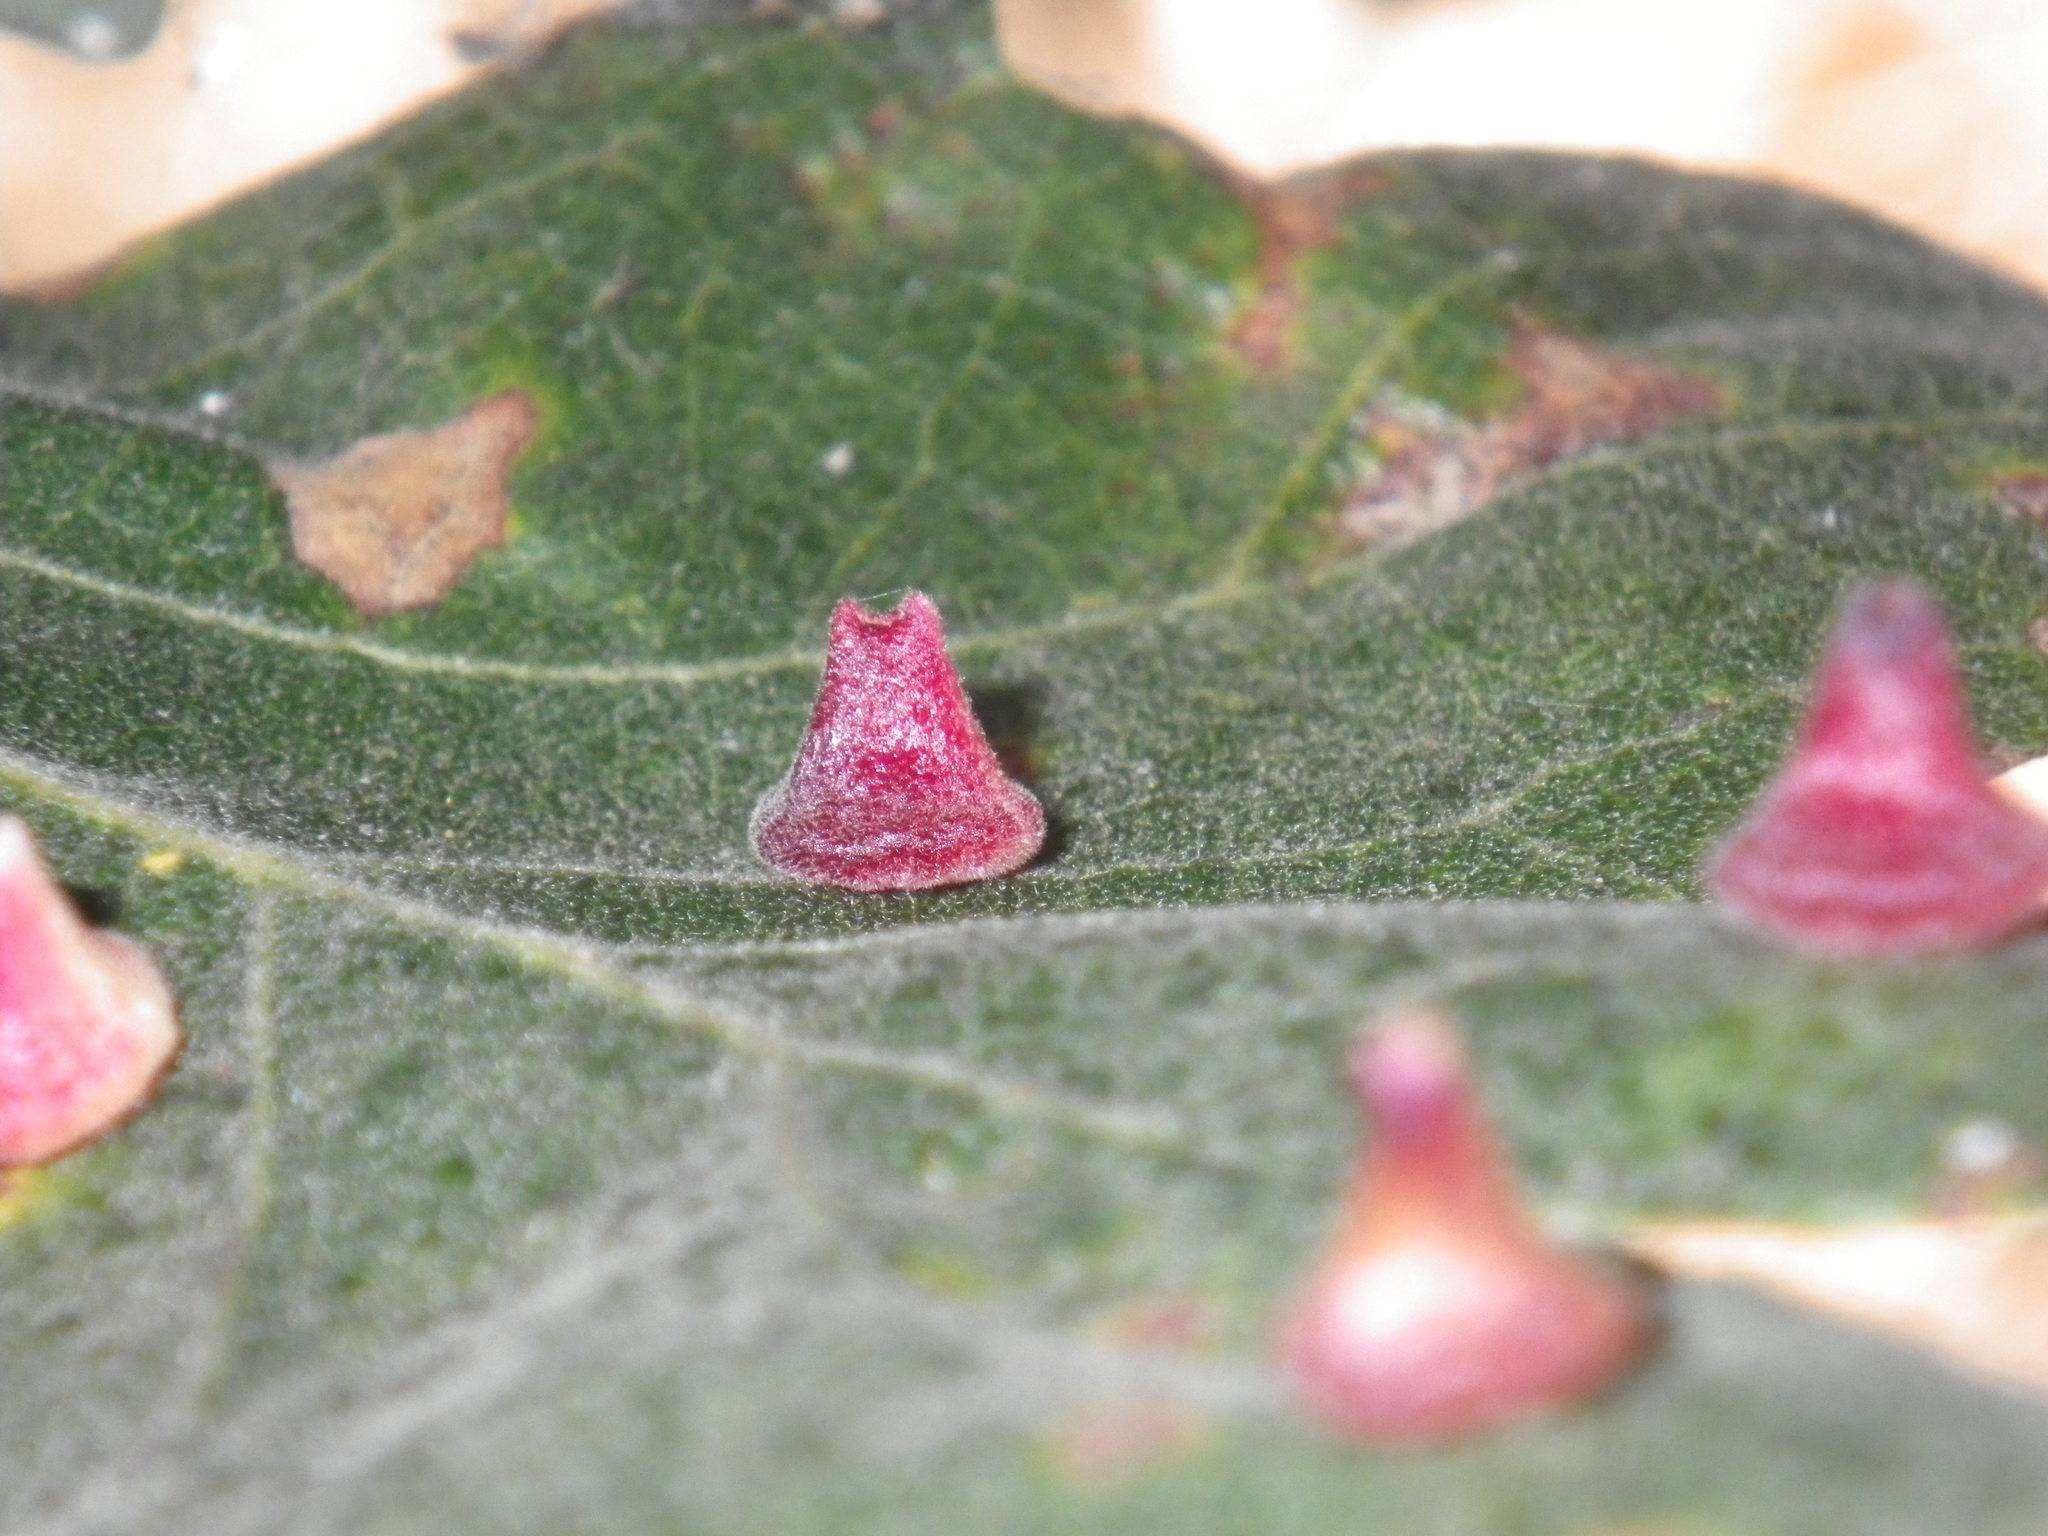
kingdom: Animalia
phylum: Arthropoda
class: Insecta
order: Hymenoptera
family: Cynipidae
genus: Andricus
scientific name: Andricus
